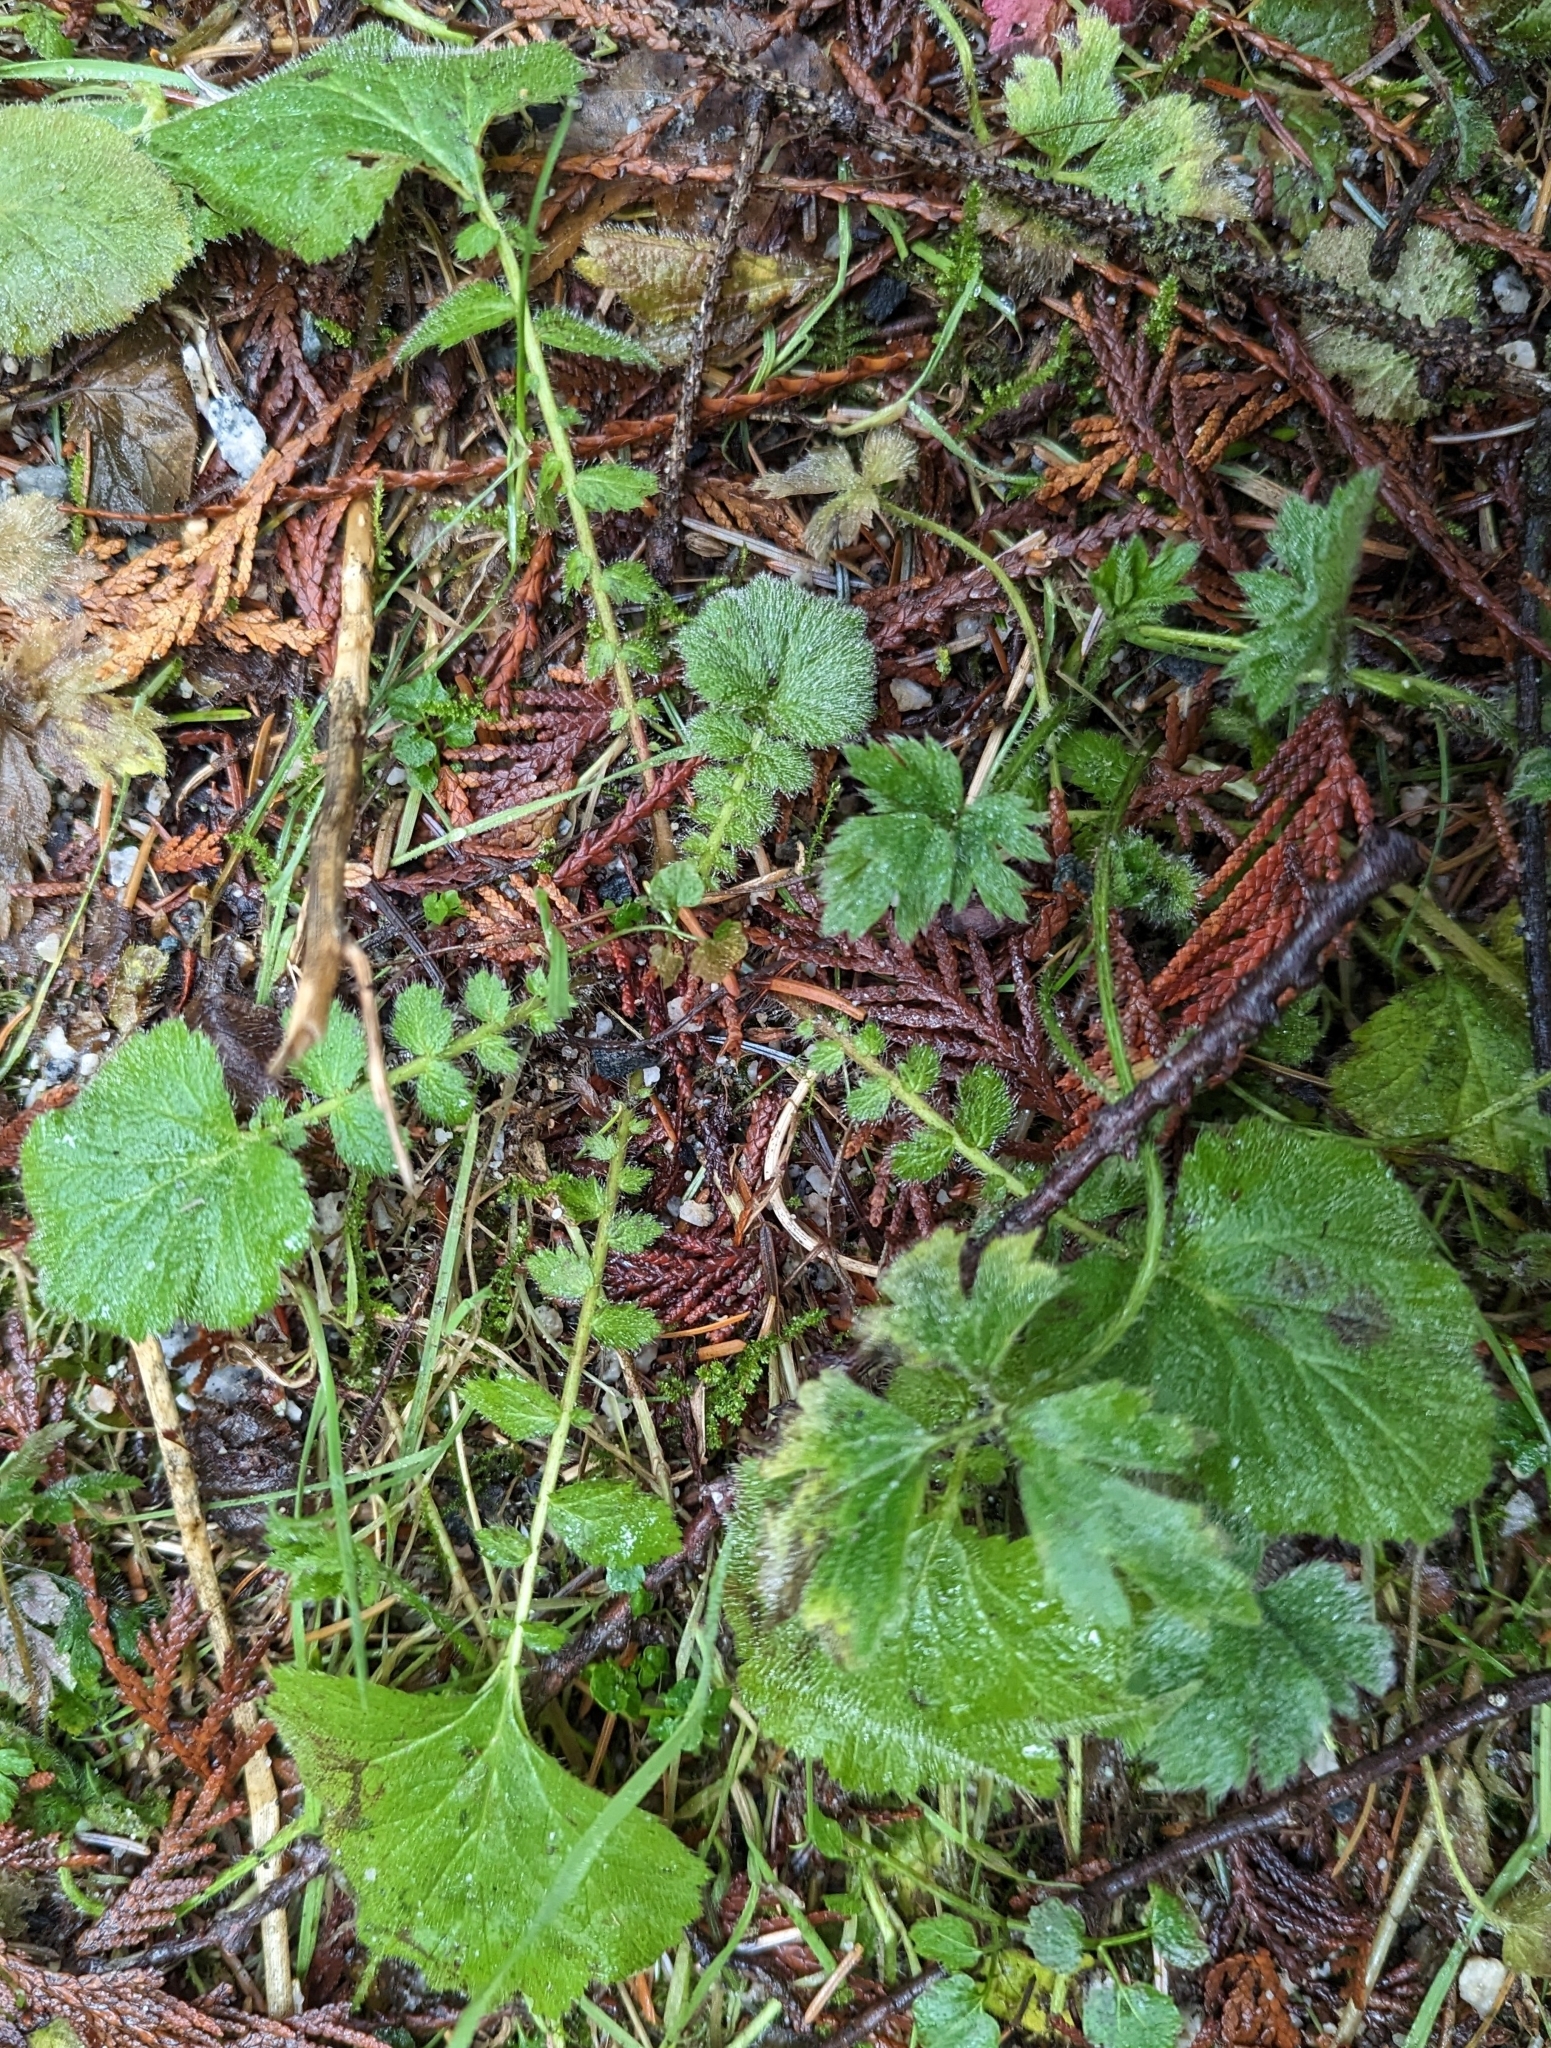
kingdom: Plantae
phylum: Tracheophyta
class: Magnoliopsida
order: Rosales
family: Rosaceae
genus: Geum
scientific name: Geum macrophyllum
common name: Large-leaved avens
